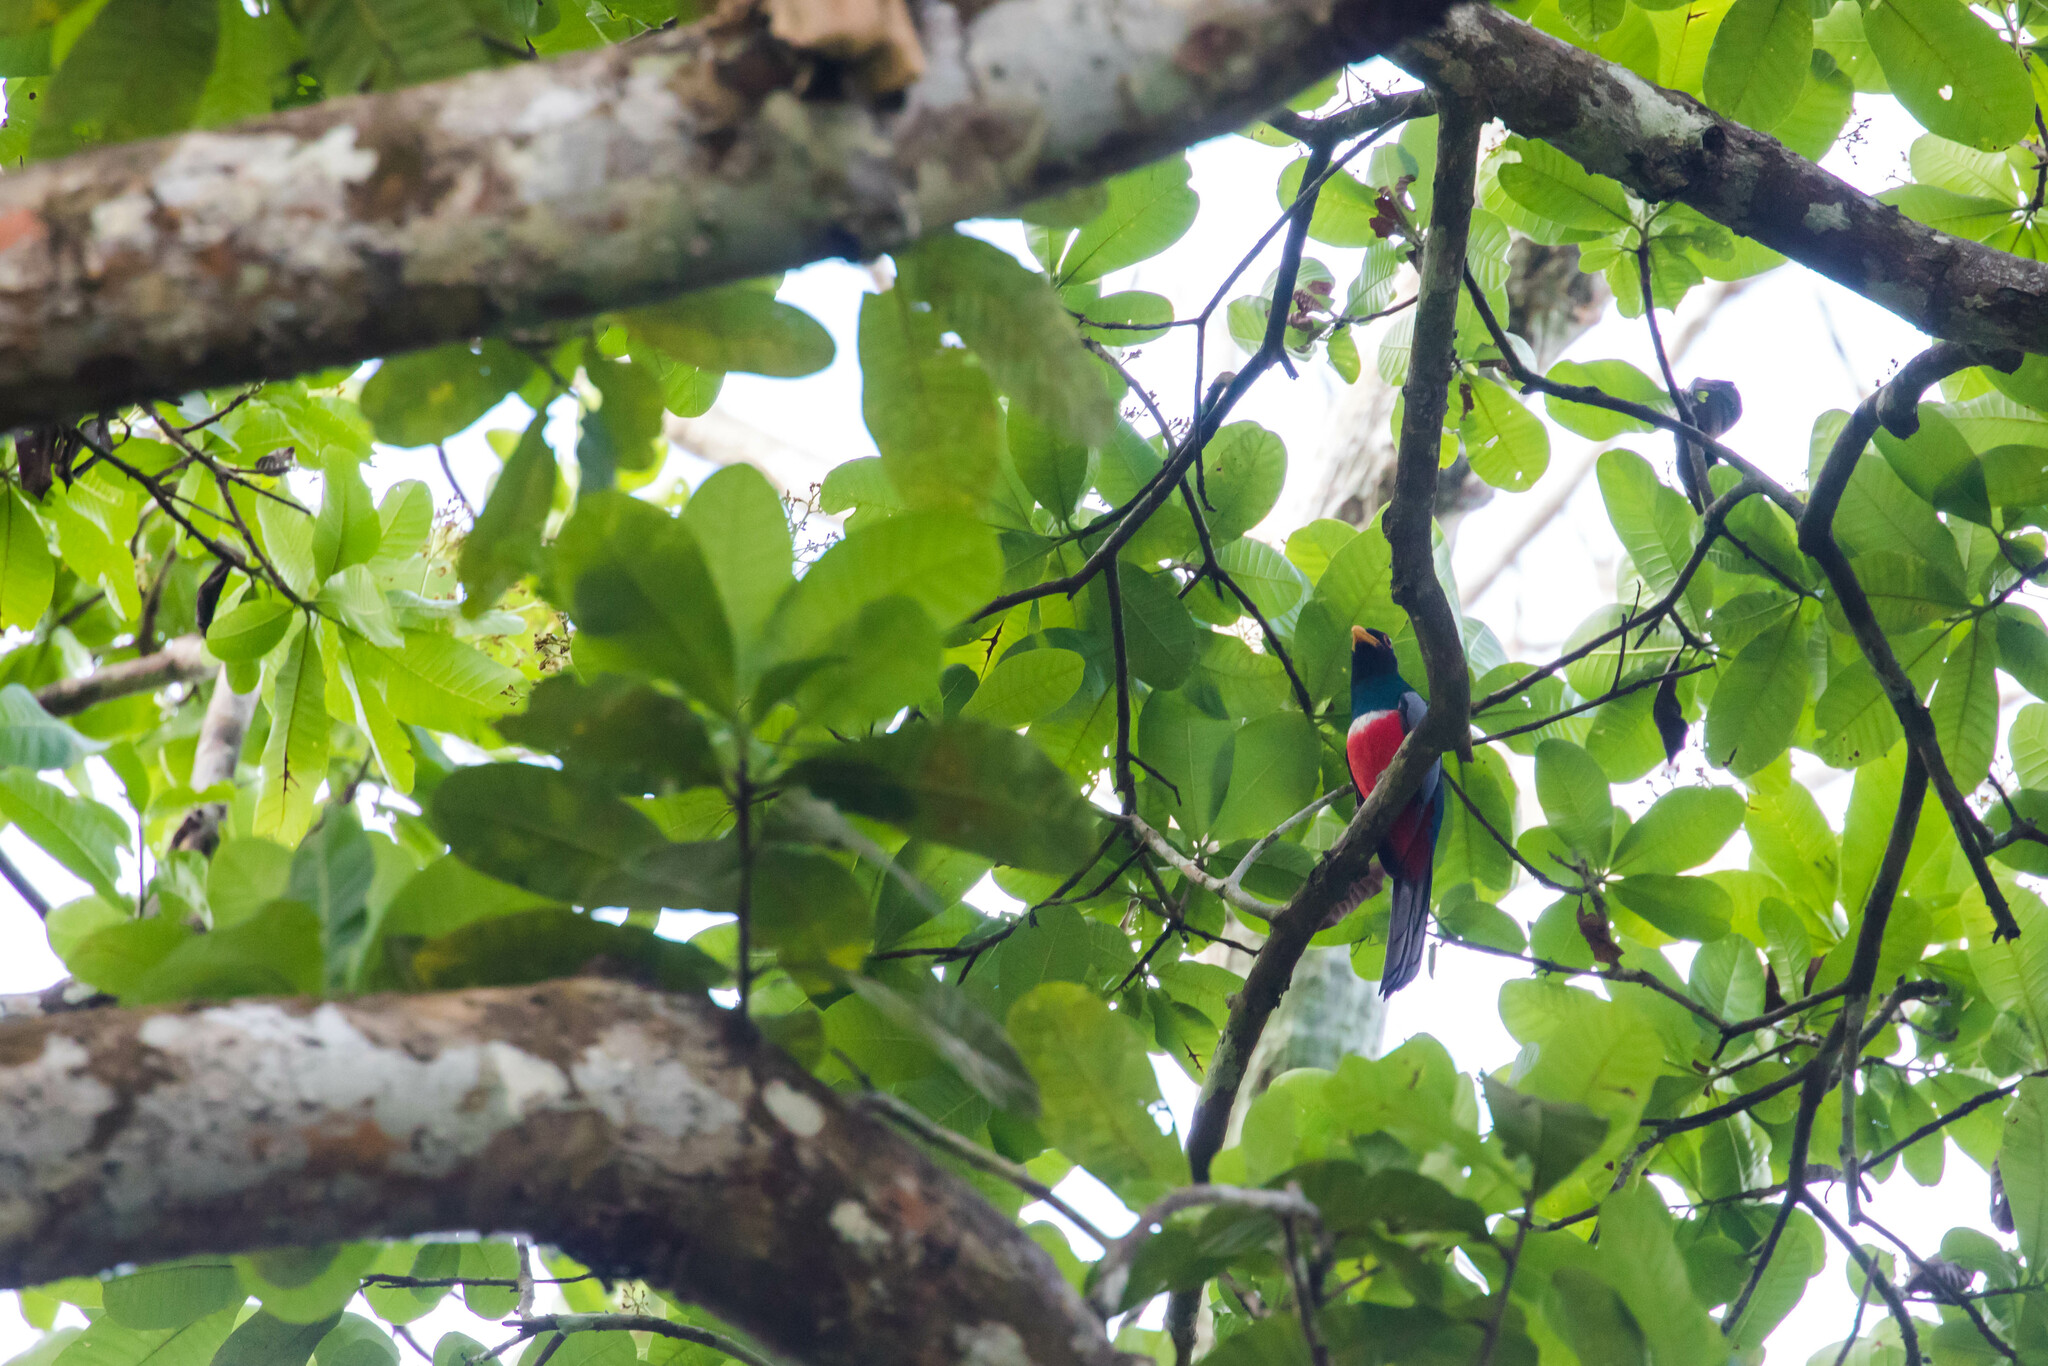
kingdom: Animalia
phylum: Chordata
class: Aves
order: Trogoniformes
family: Trogonidae
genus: Trogon
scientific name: Trogon melanurus
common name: Black-tailed trogon
